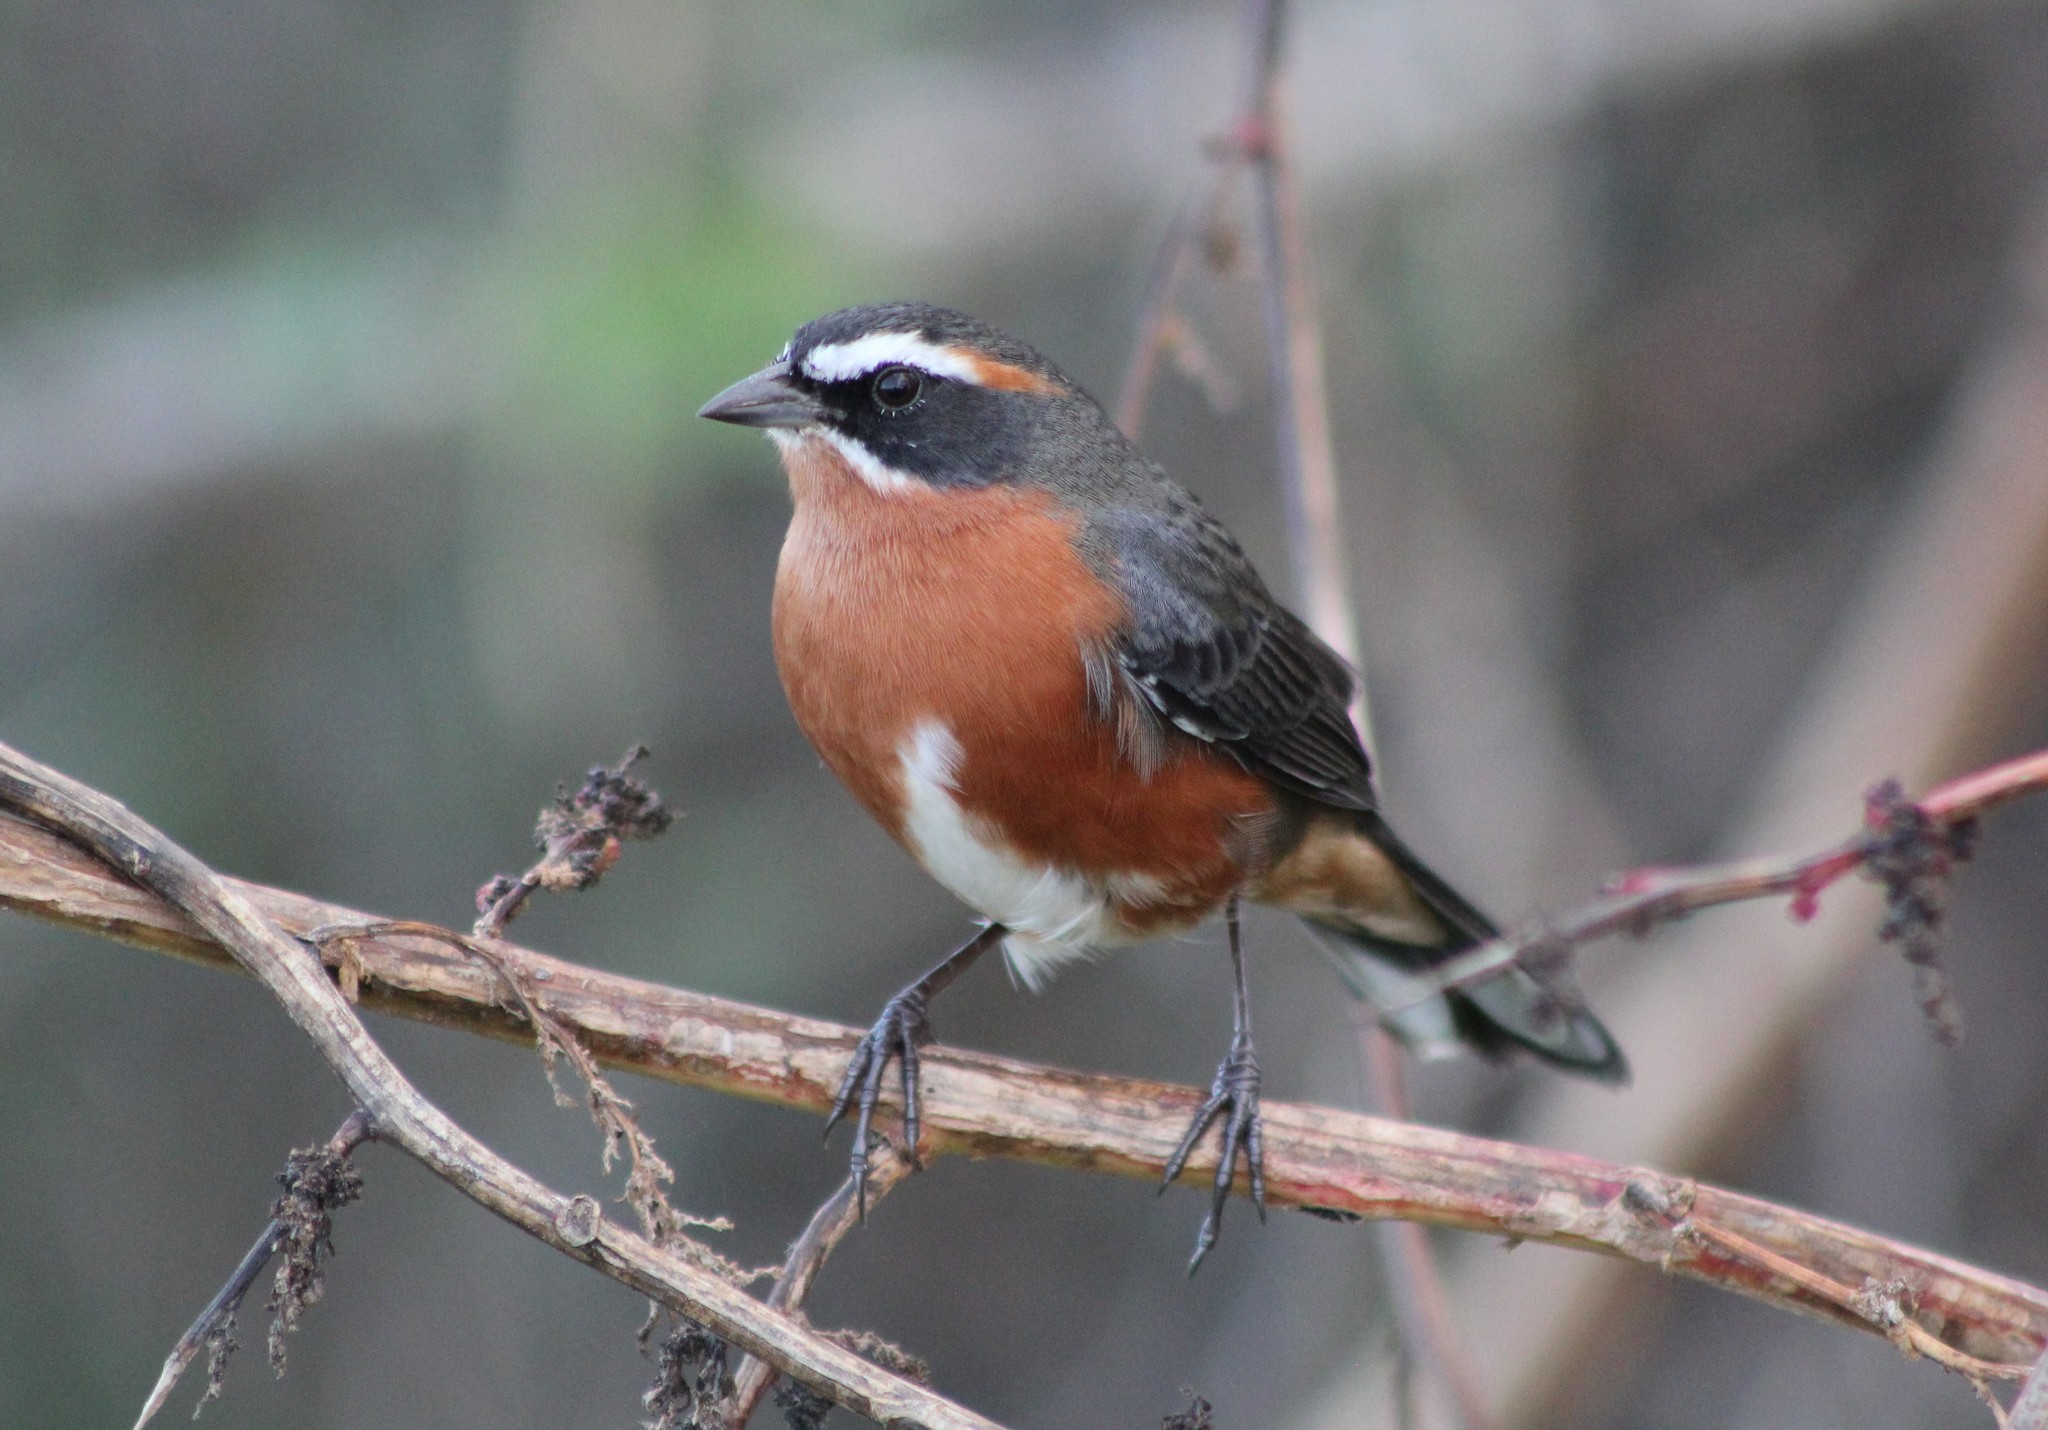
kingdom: Animalia
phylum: Chordata
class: Aves
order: Passeriformes
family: Thraupidae
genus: Poospiza
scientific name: Poospiza nigrorufa
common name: Black-and-rufous warbling finch
